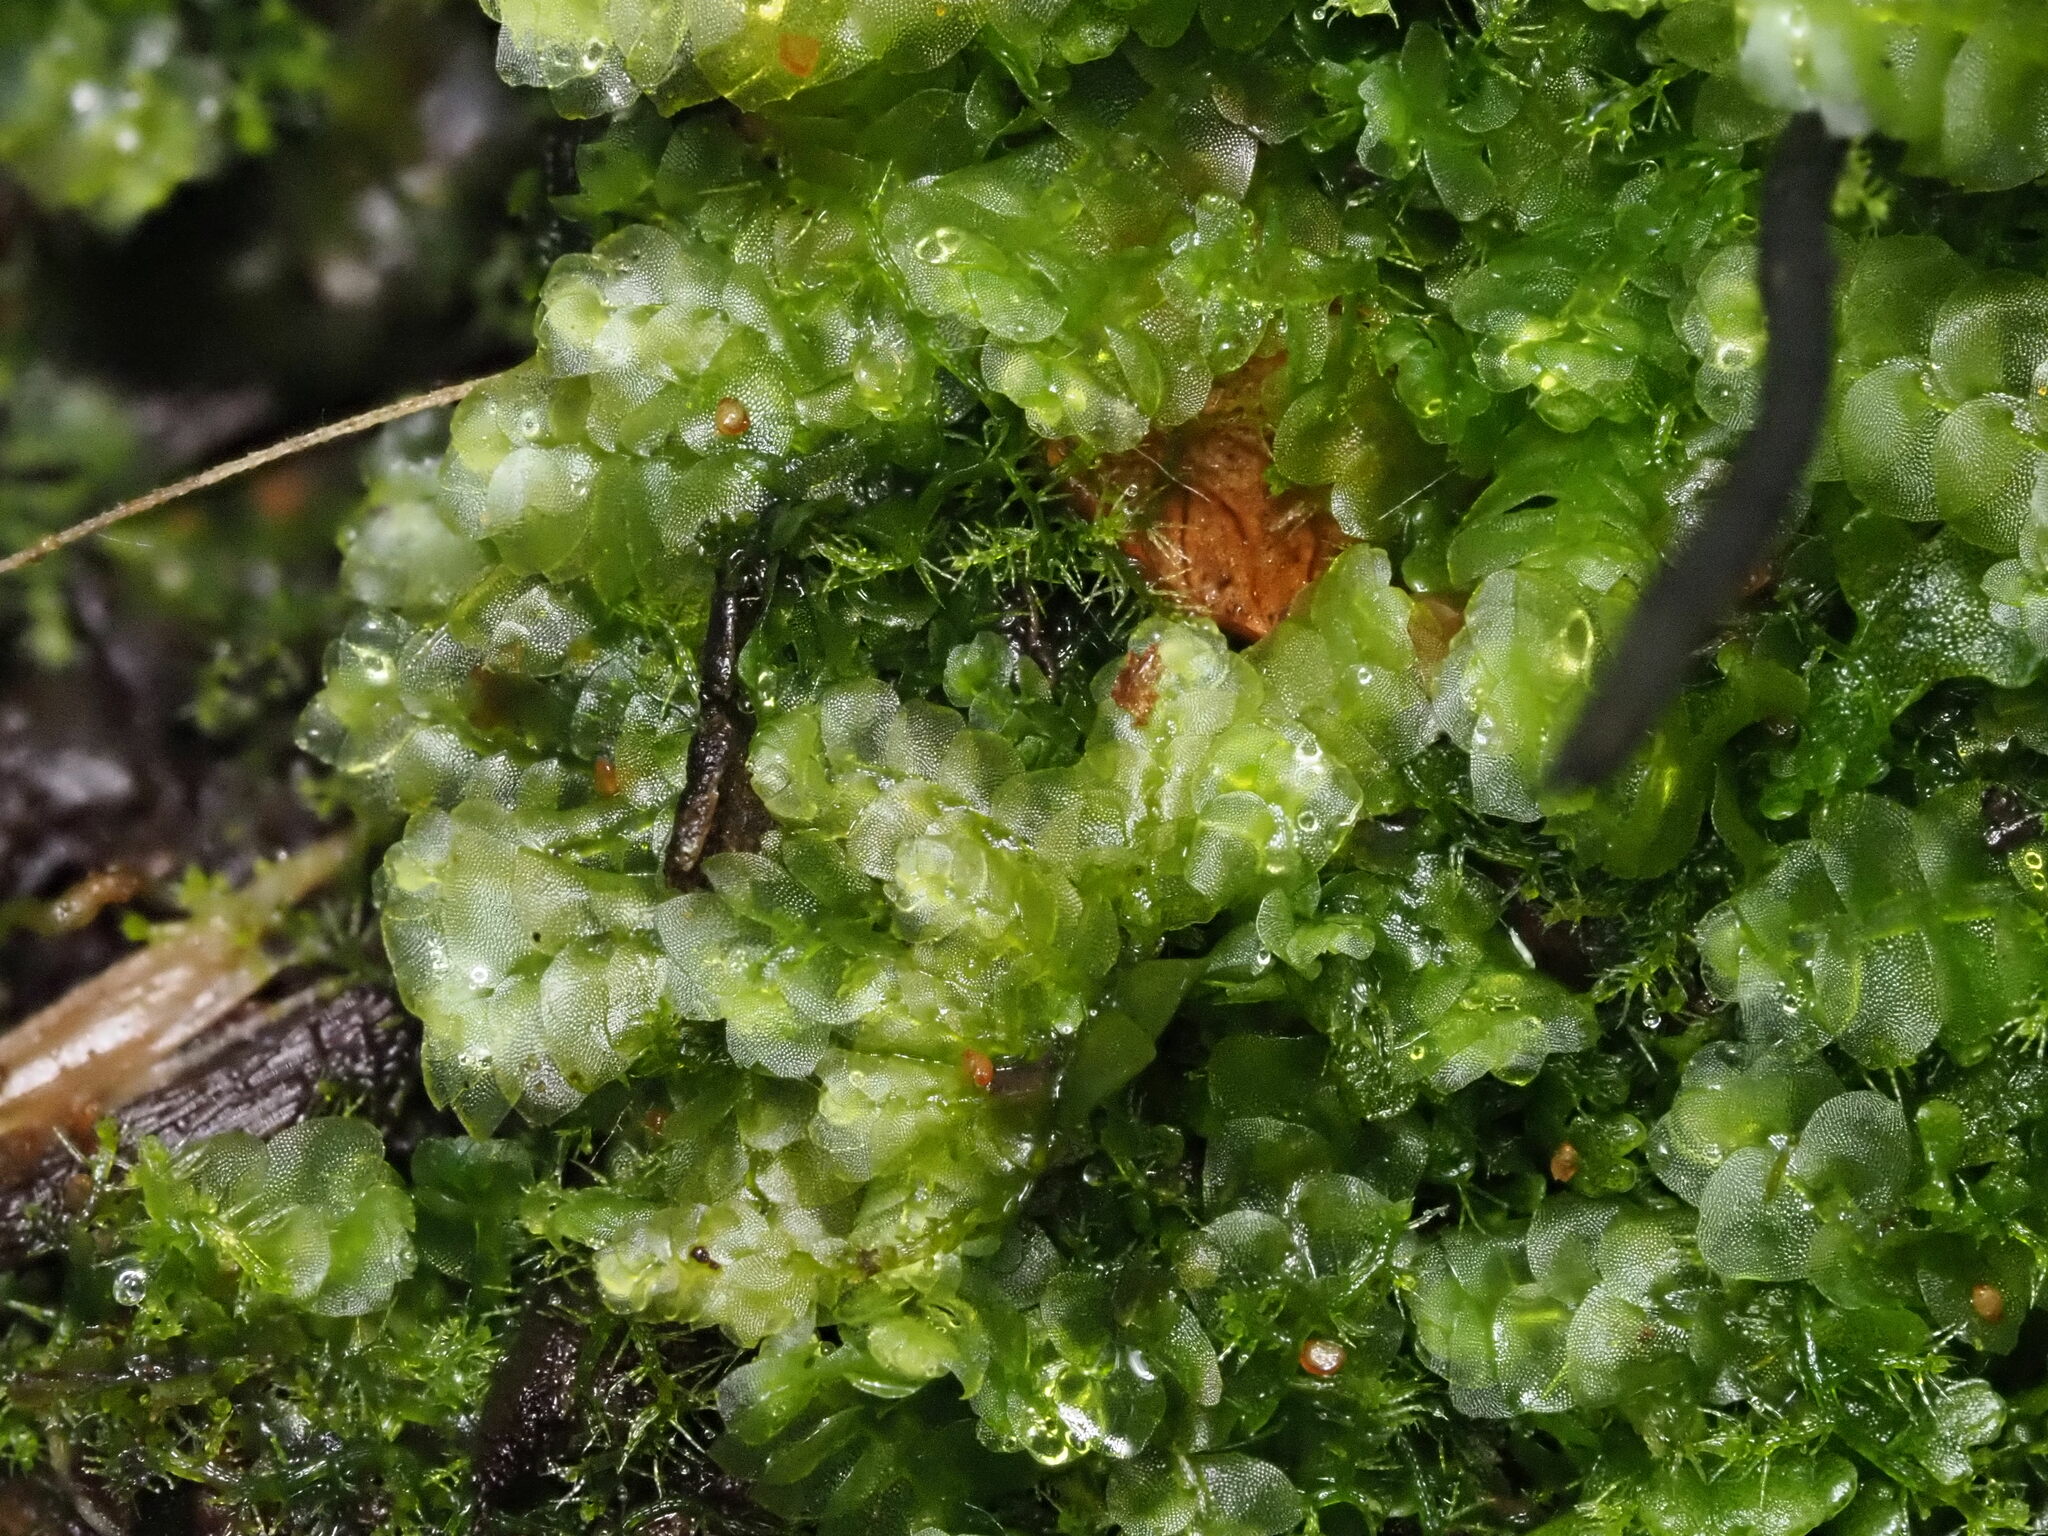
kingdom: Plantae
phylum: Marchantiophyta
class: Jungermanniopsida
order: Jungermanniales
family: Lepidoziaceae
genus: Telaranea
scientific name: Telaranea nematodes
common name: Irish threadwort
